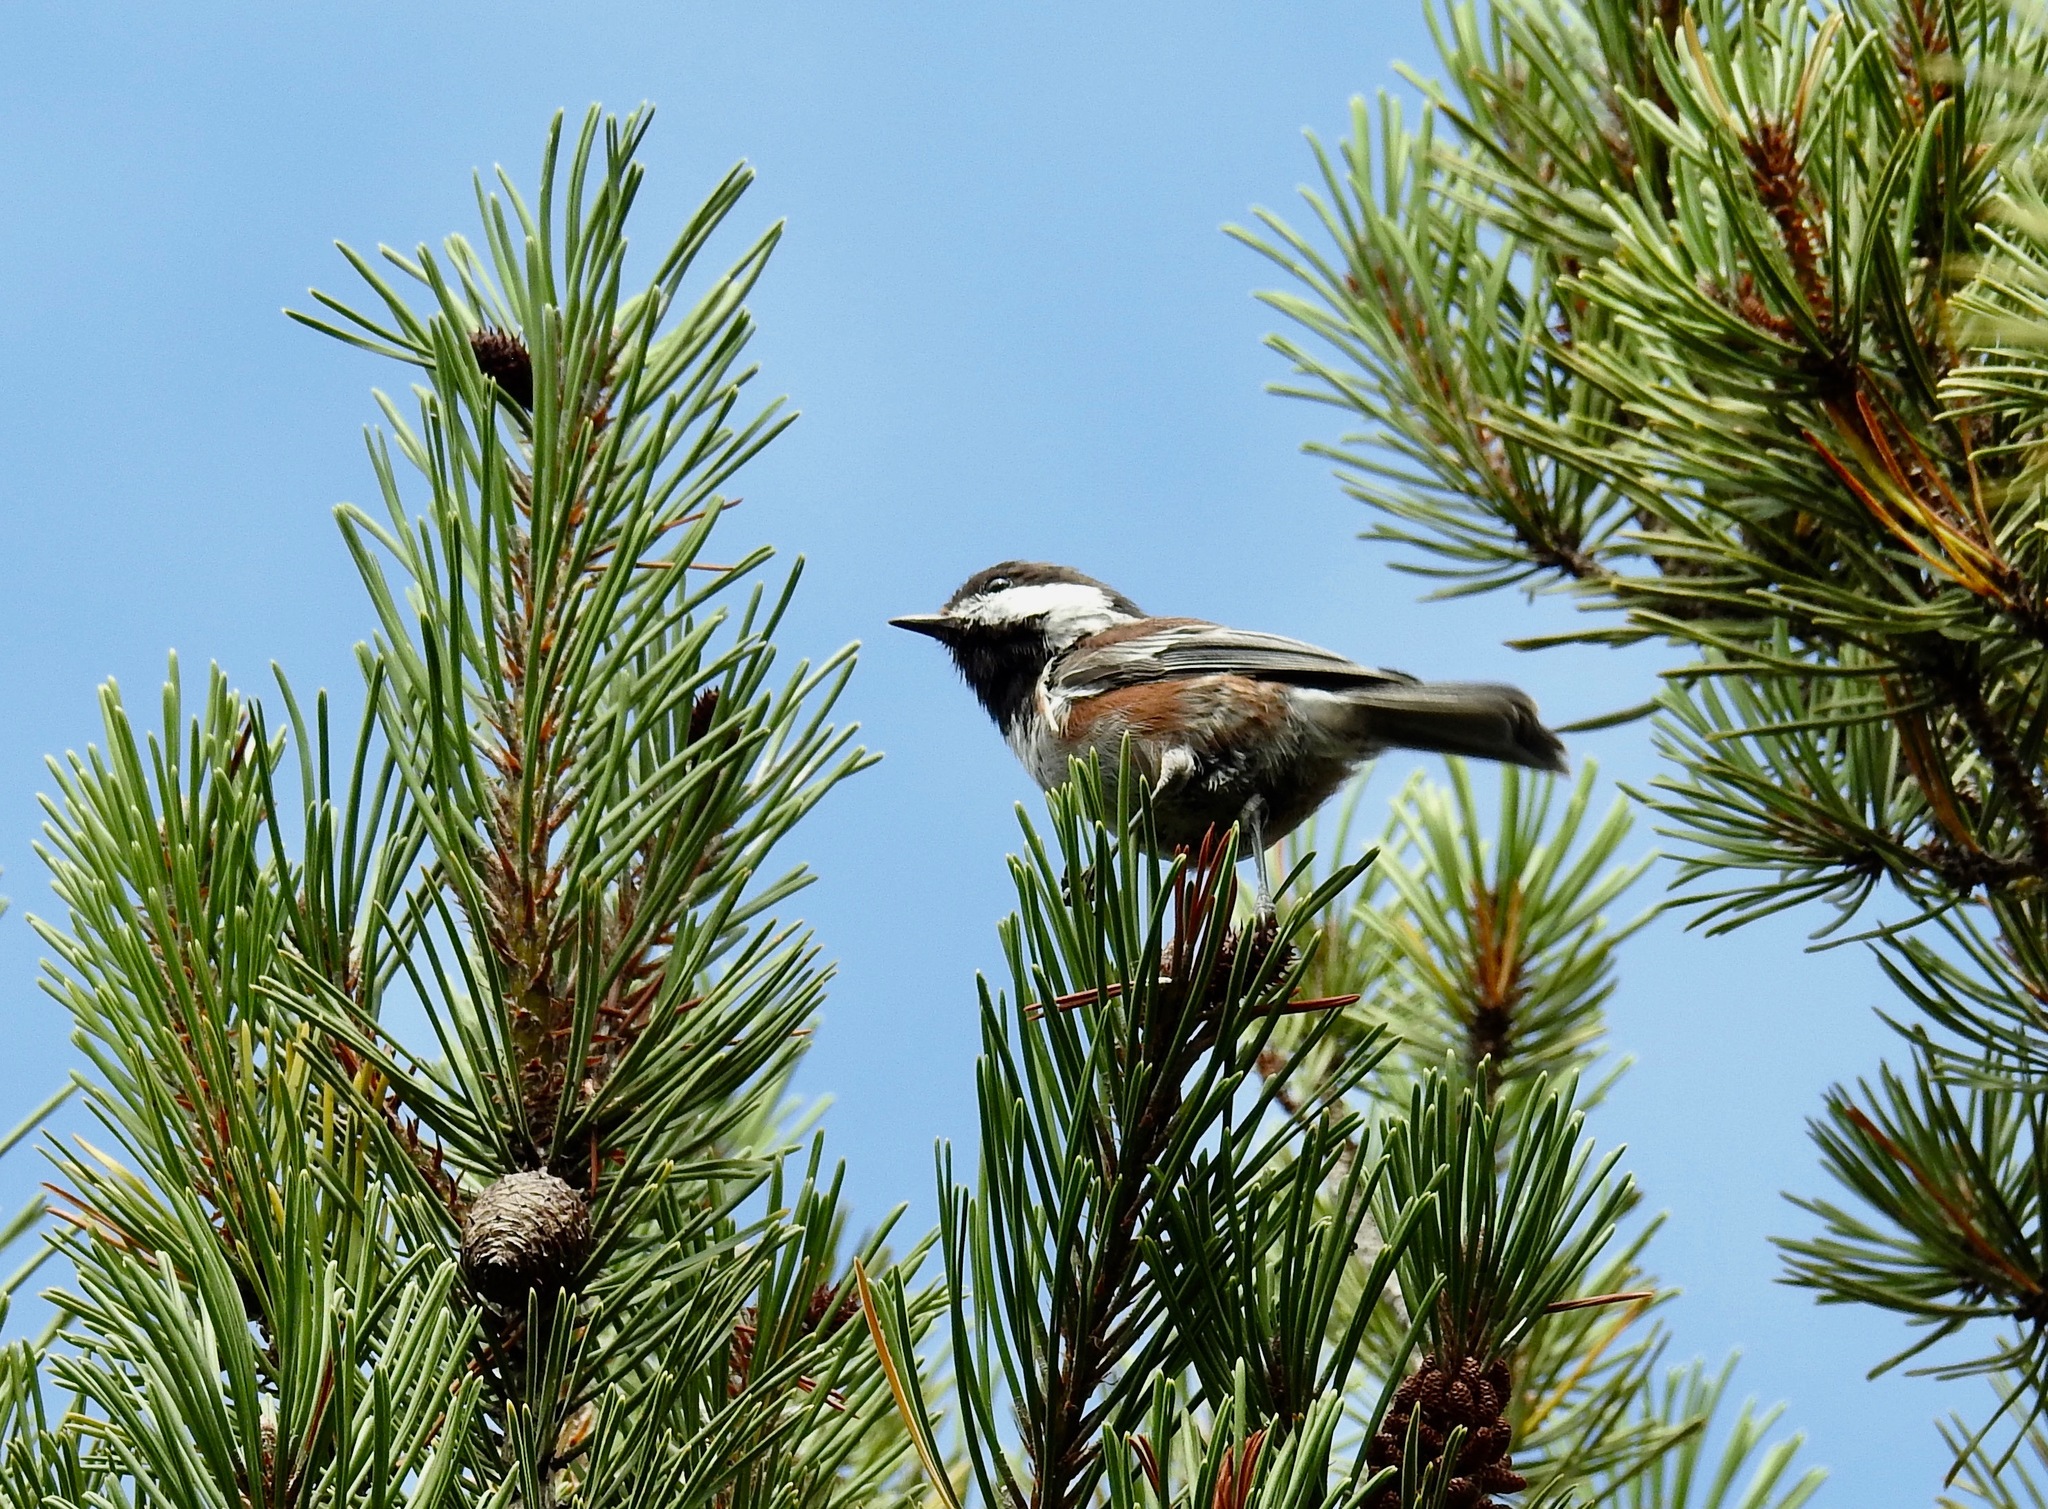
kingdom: Animalia
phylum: Chordata
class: Aves
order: Passeriformes
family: Paridae
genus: Poecile
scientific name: Poecile rufescens
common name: Chestnut-backed chickadee
